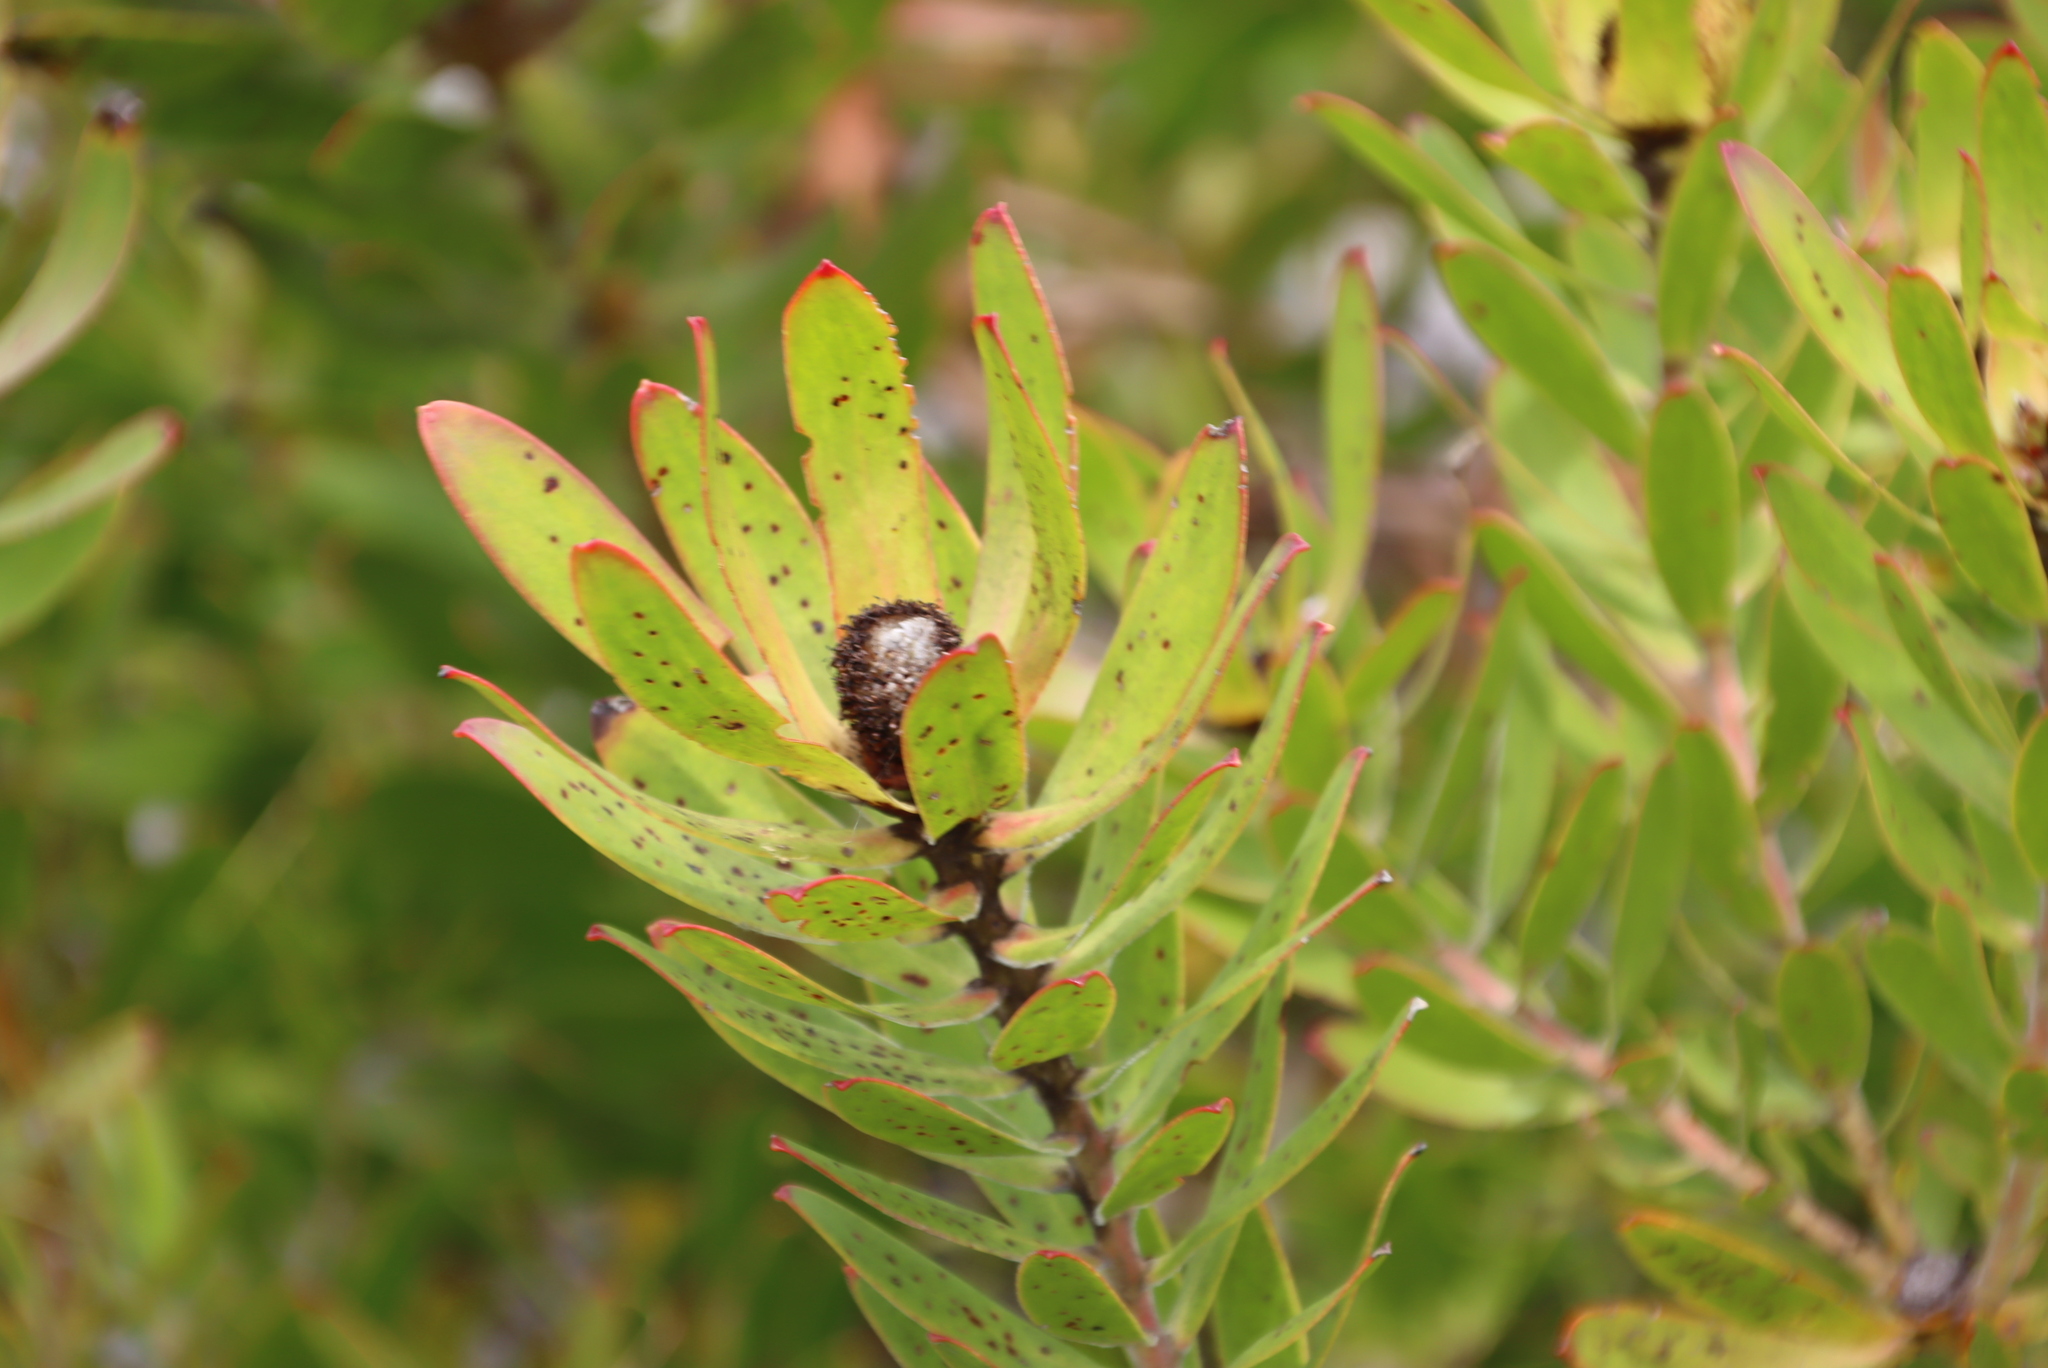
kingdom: Plantae
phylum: Tracheophyta
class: Magnoliopsida
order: Proteales
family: Proteaceae
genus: Leucadendron
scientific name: Leucadendron laureolum
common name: Golden sunshinebush
